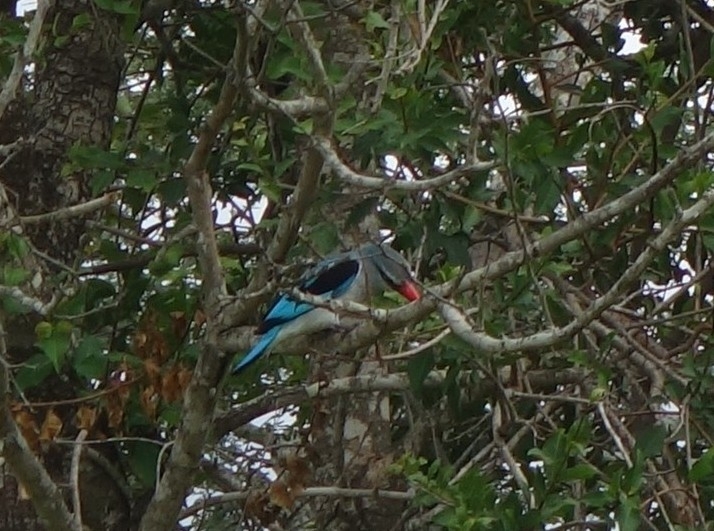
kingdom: Animalia
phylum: Chordata
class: Aves
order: Coraciiformes
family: Alcedinidae
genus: Halcyon
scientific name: Halcyon senegalensis
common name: Woodland kingfisher
